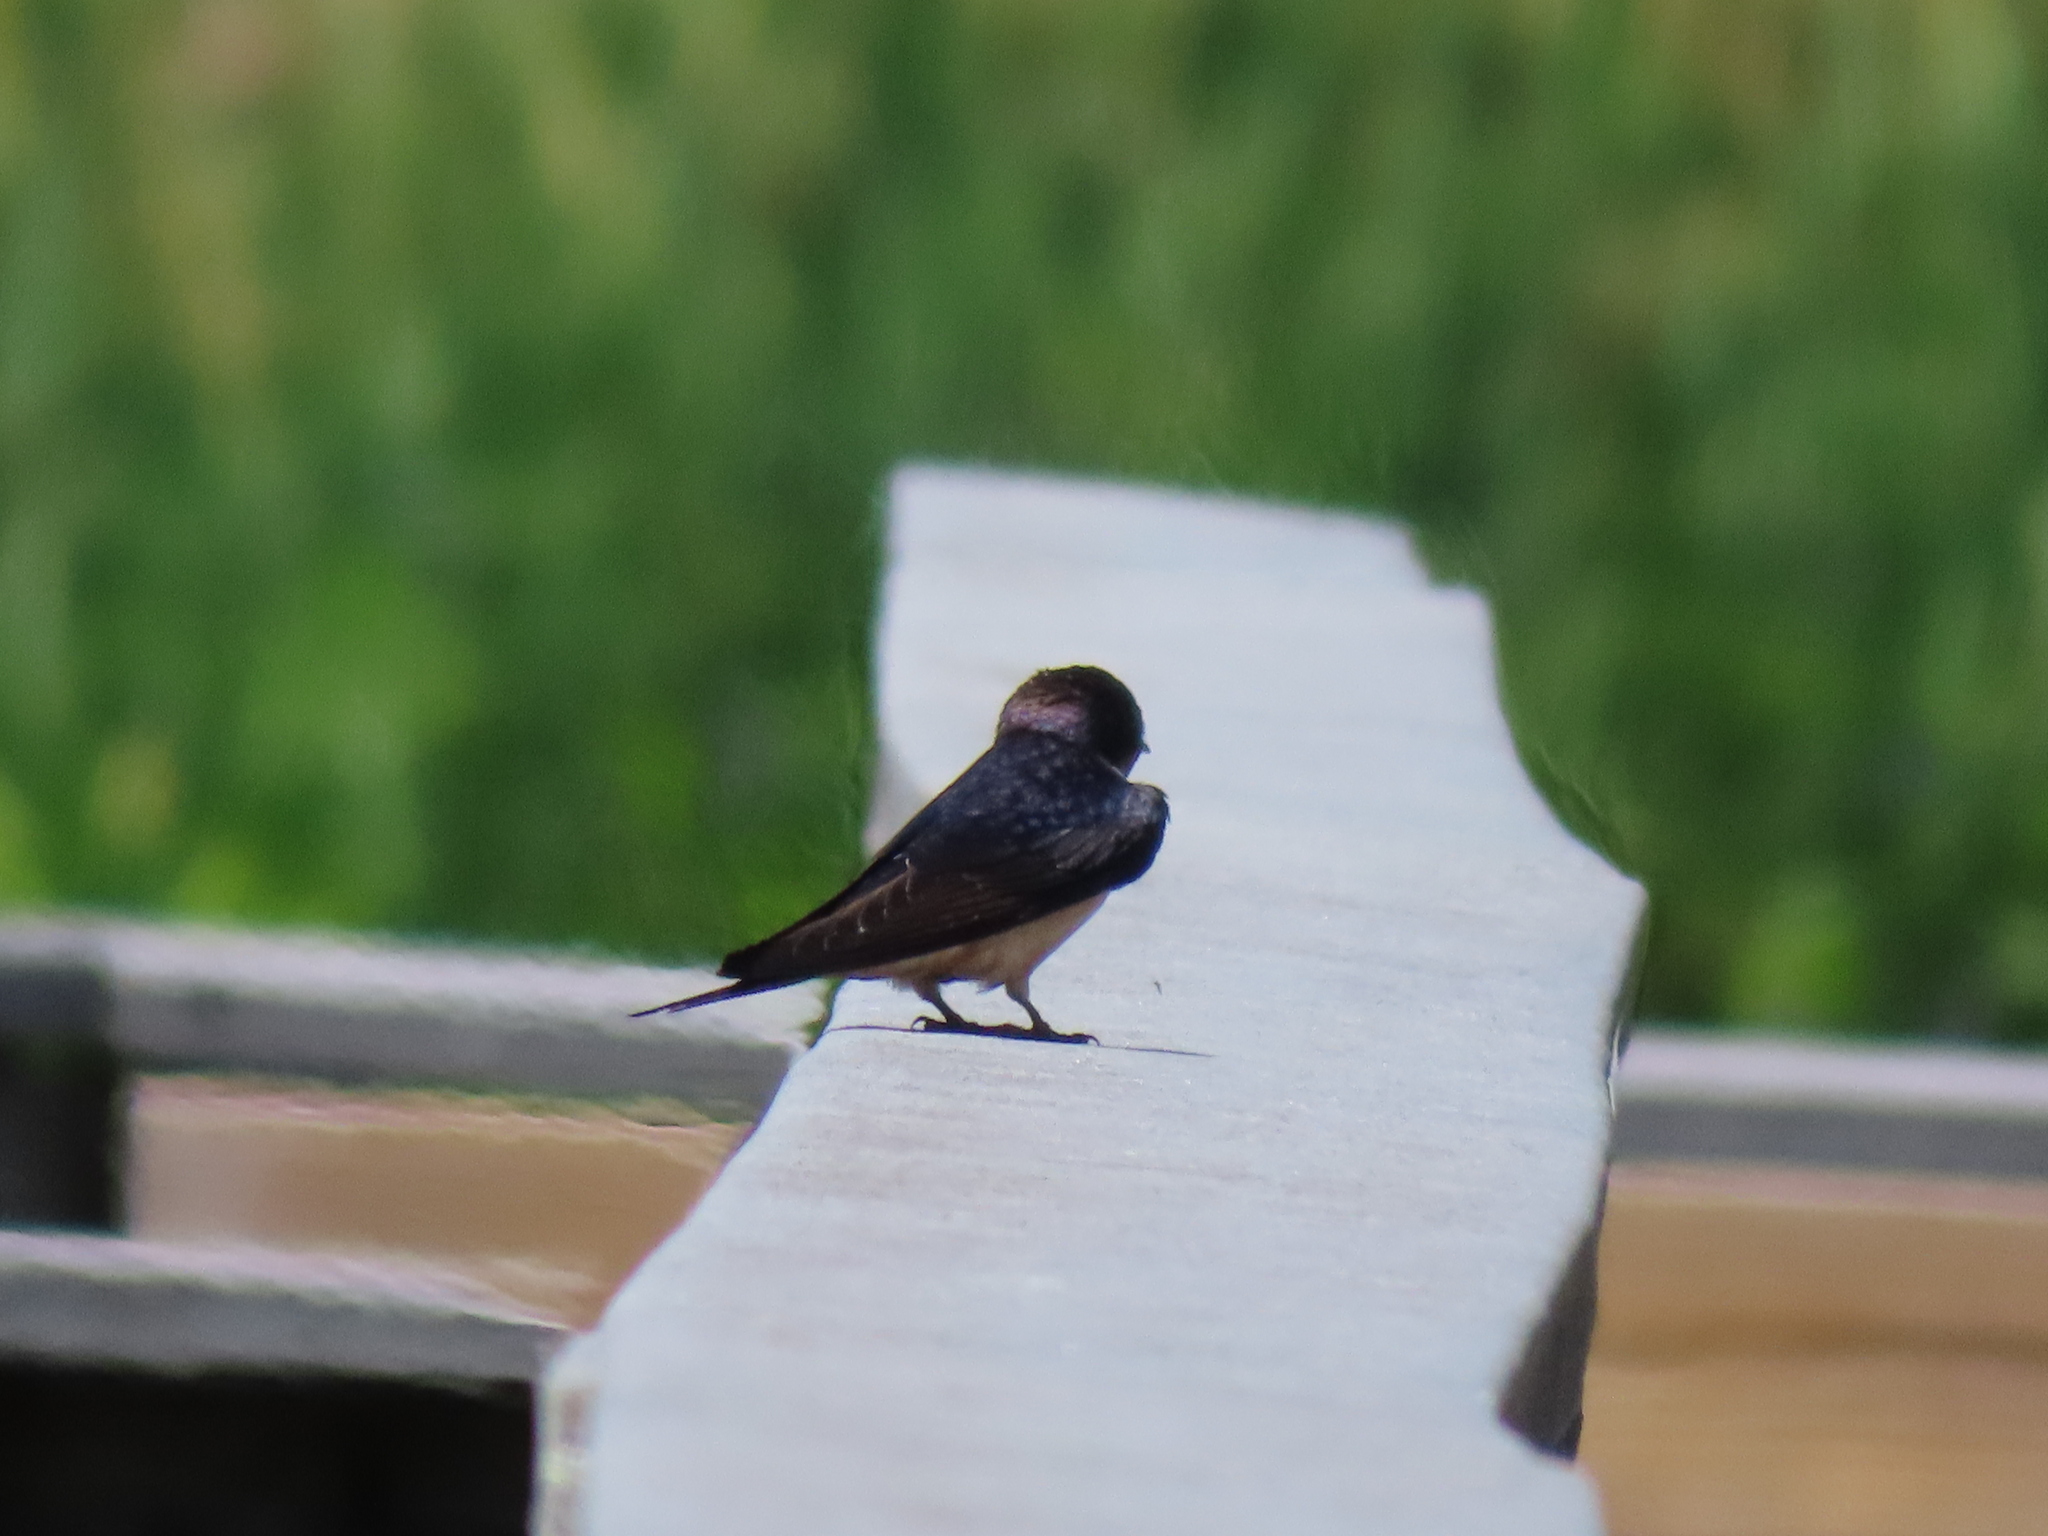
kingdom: Animalia
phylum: Chordata
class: Aves
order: Passeriformes
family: Hirundinidae
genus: Hirundo
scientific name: Hirundo rustica
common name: Barn swallow
